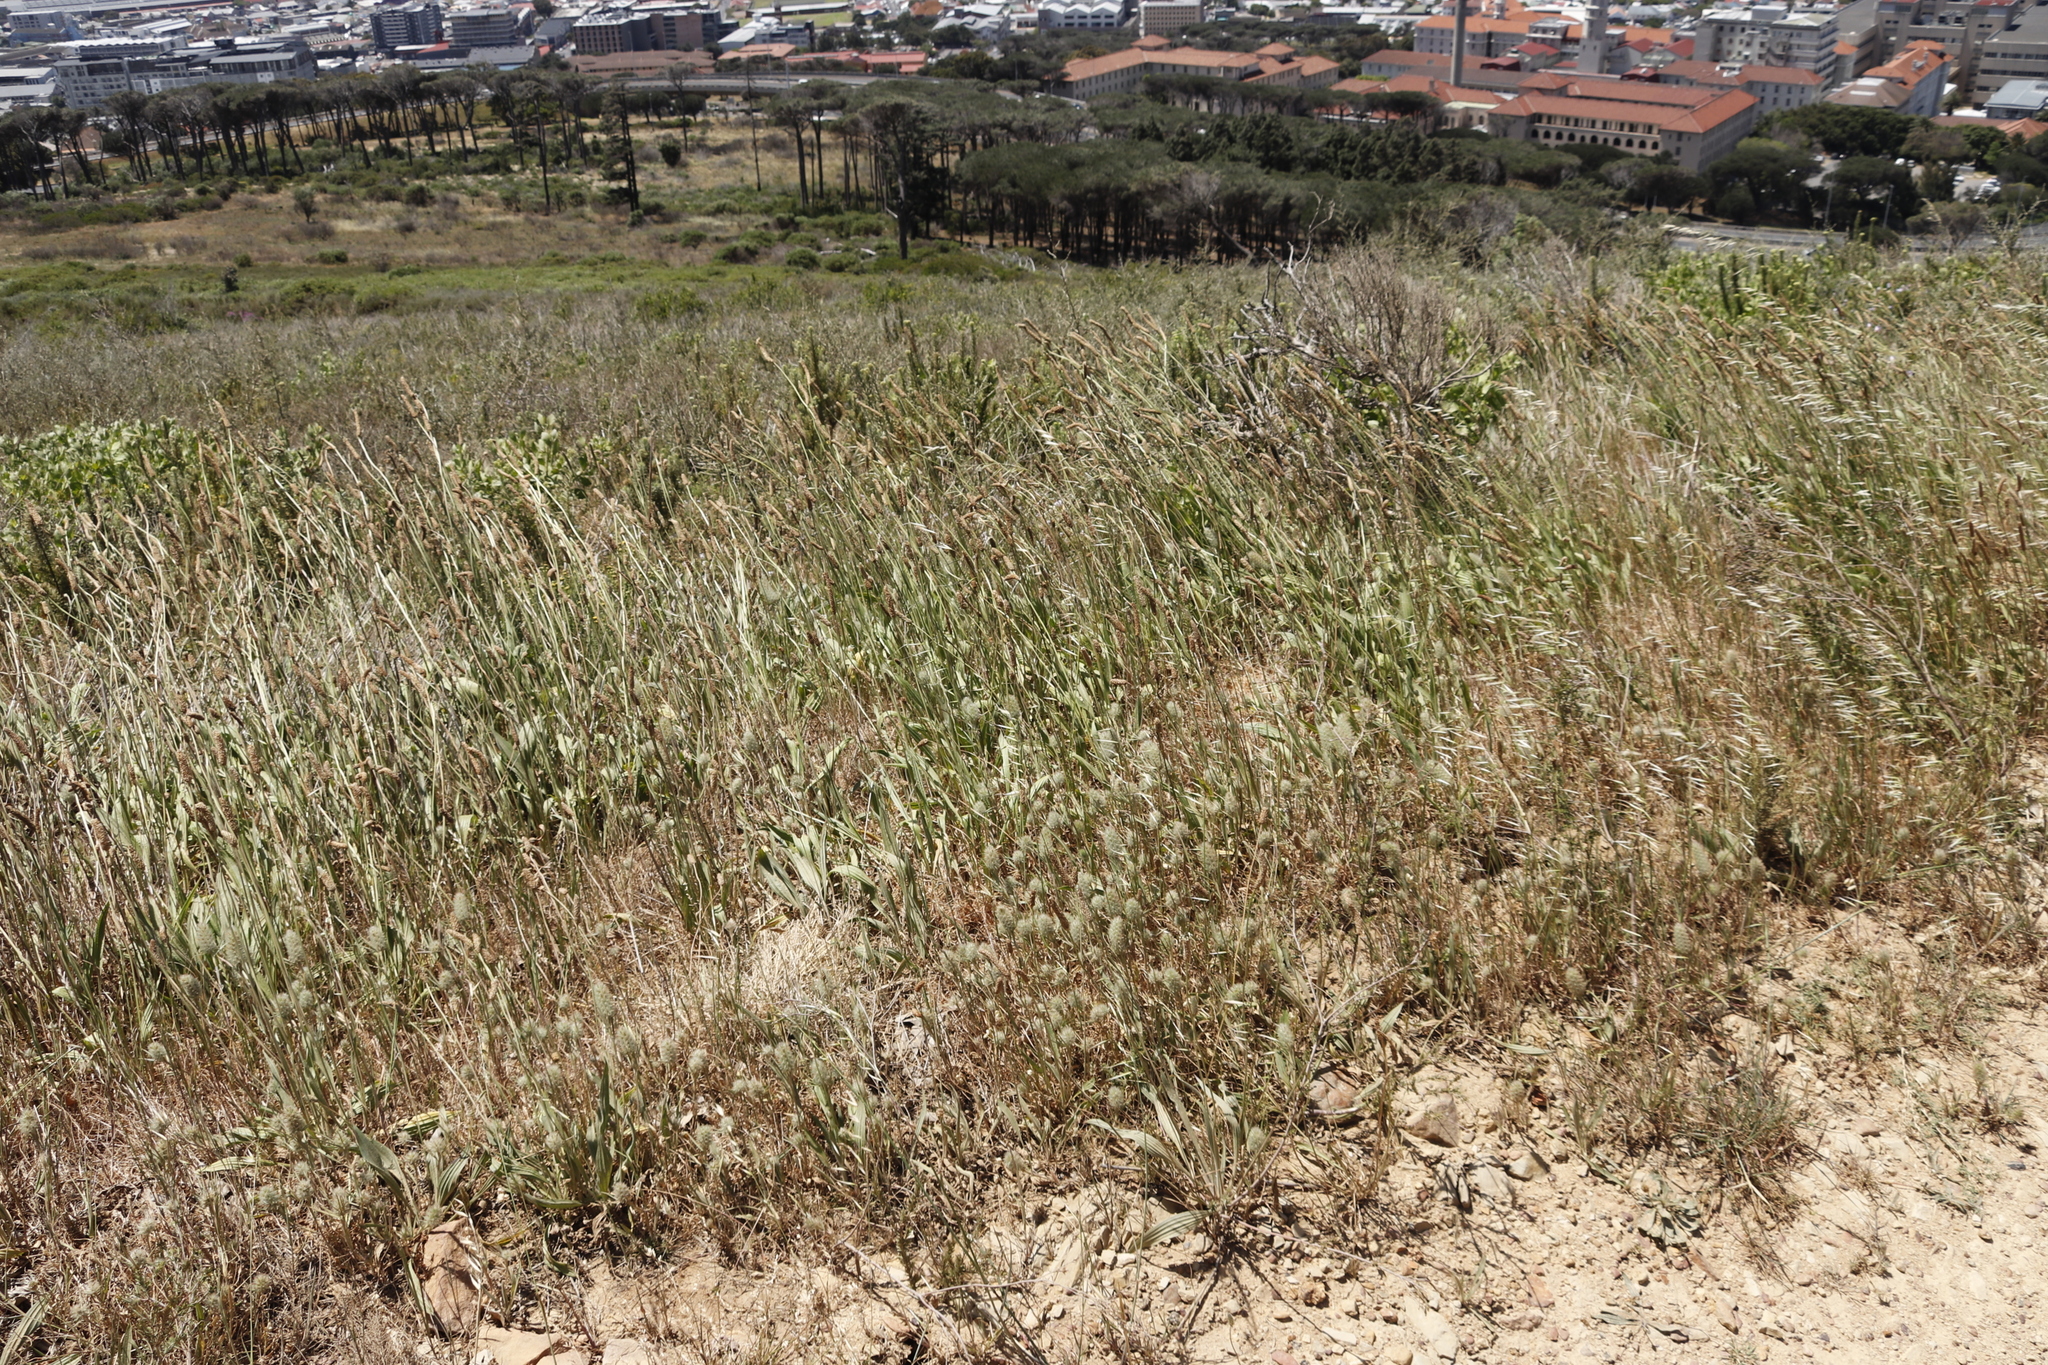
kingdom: Plantae
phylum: Tracheophyta
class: Magnoliopsida
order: Lamiales
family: Plantaginaceae
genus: Plantago
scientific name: Plantago lanceolata
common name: Ribwort plantain
